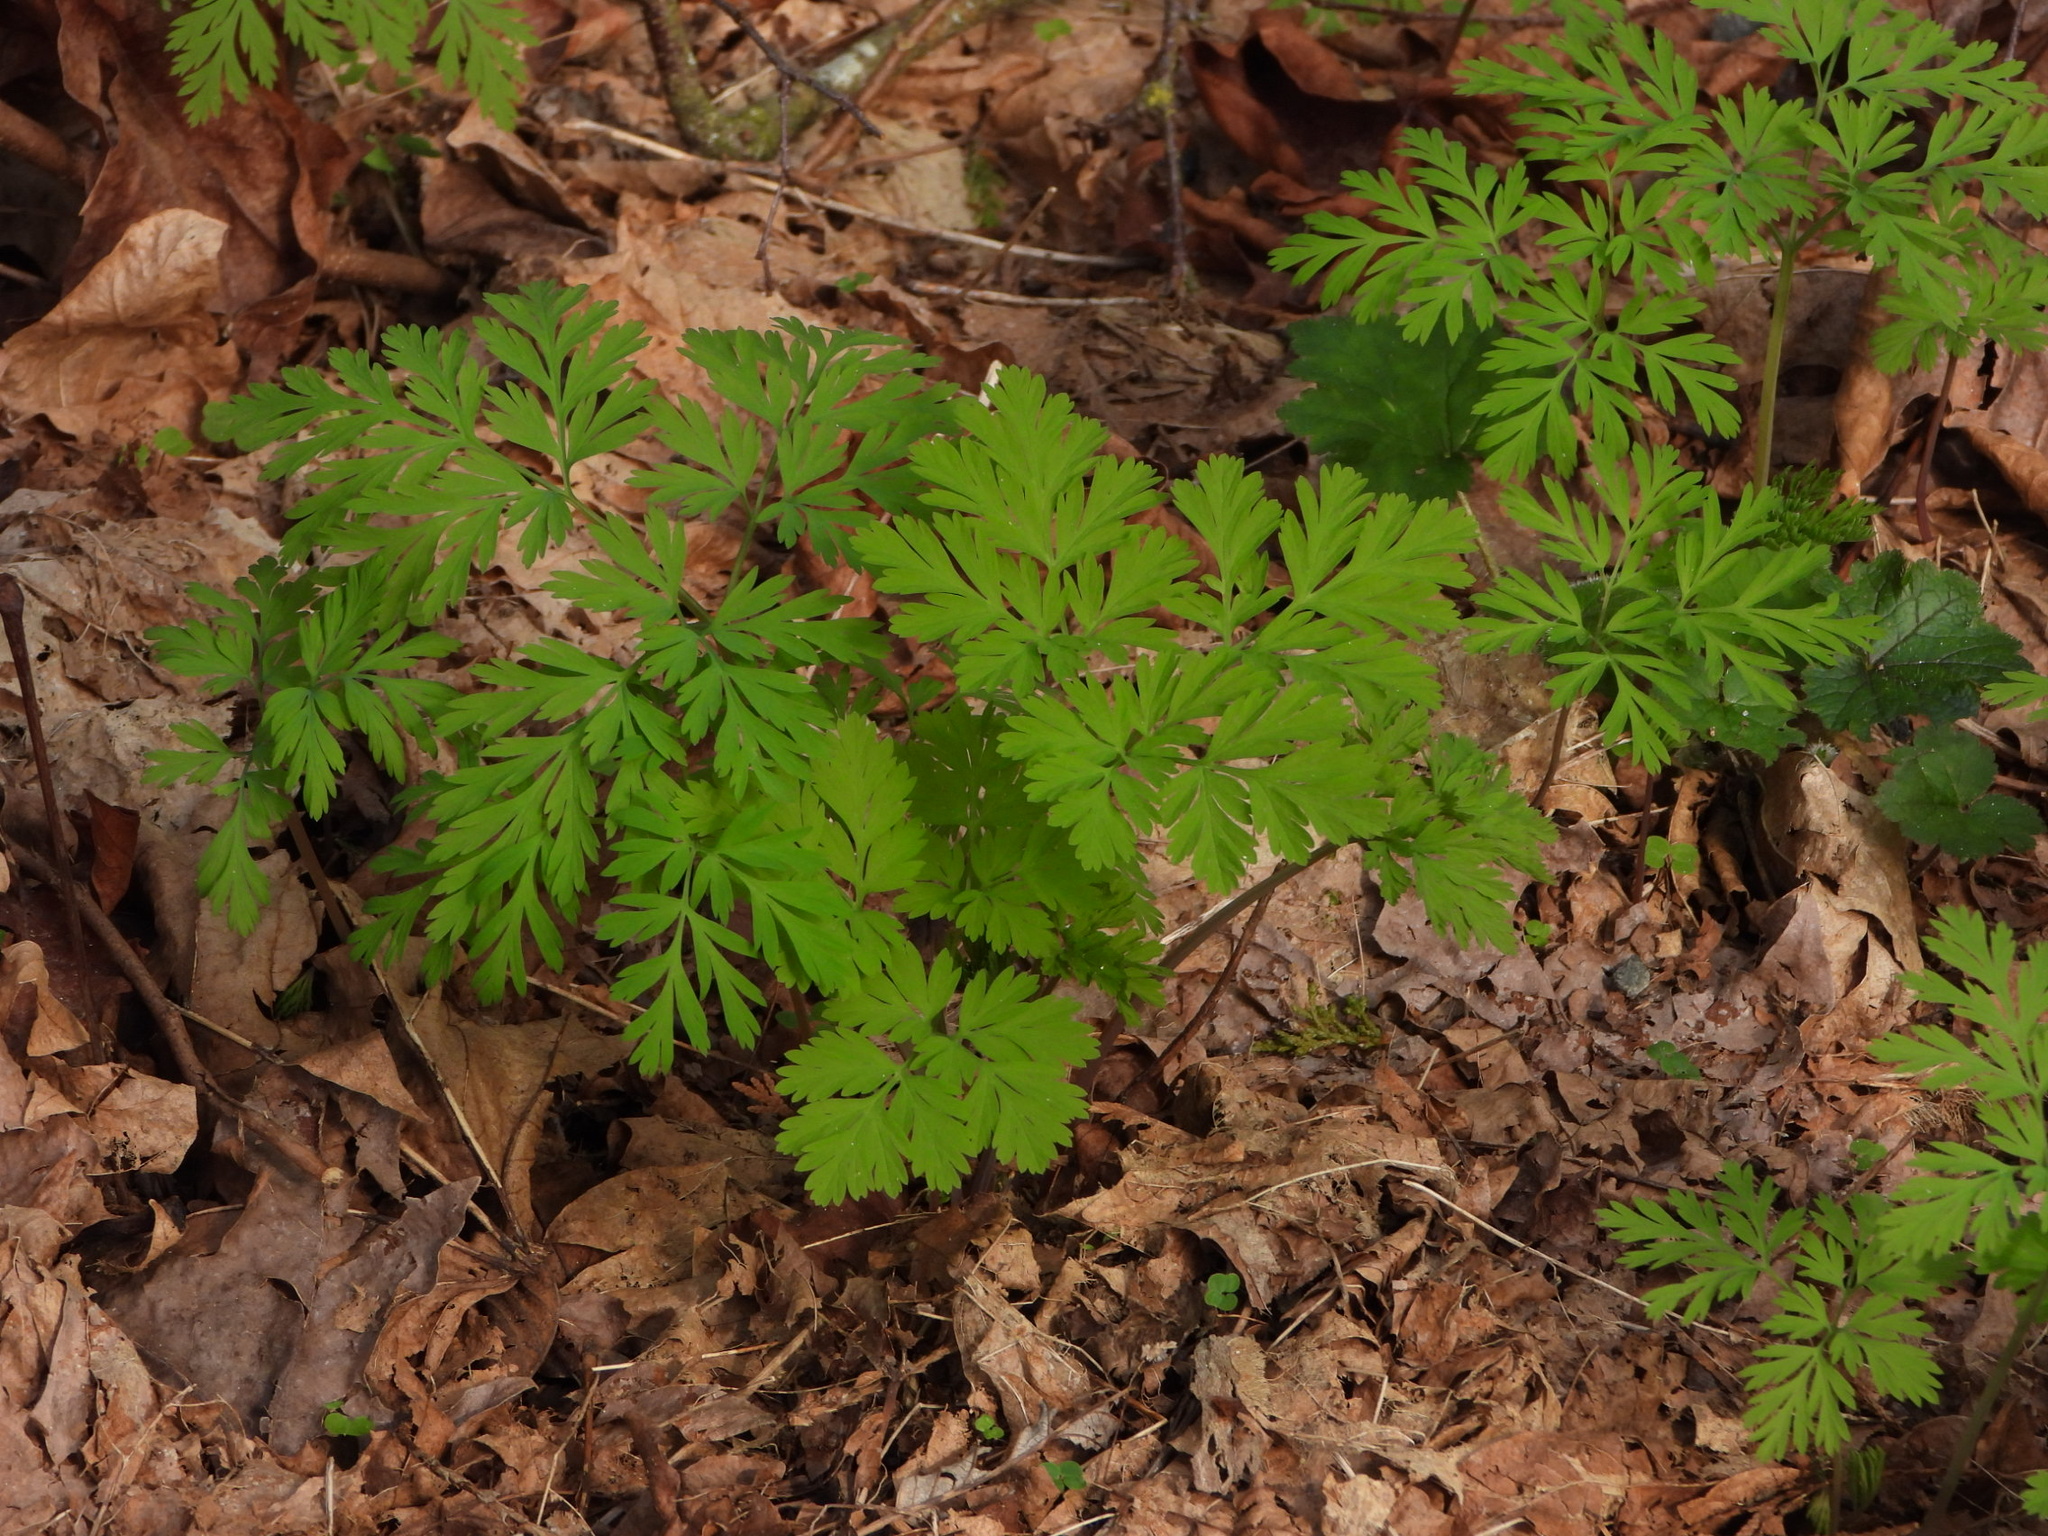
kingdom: Plantae
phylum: Tracheophyta
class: Magnoliopsida
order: Ranunculales
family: Papaveraceae
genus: Dicentra
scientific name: Dicentra formosa
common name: Bleeding-heart
